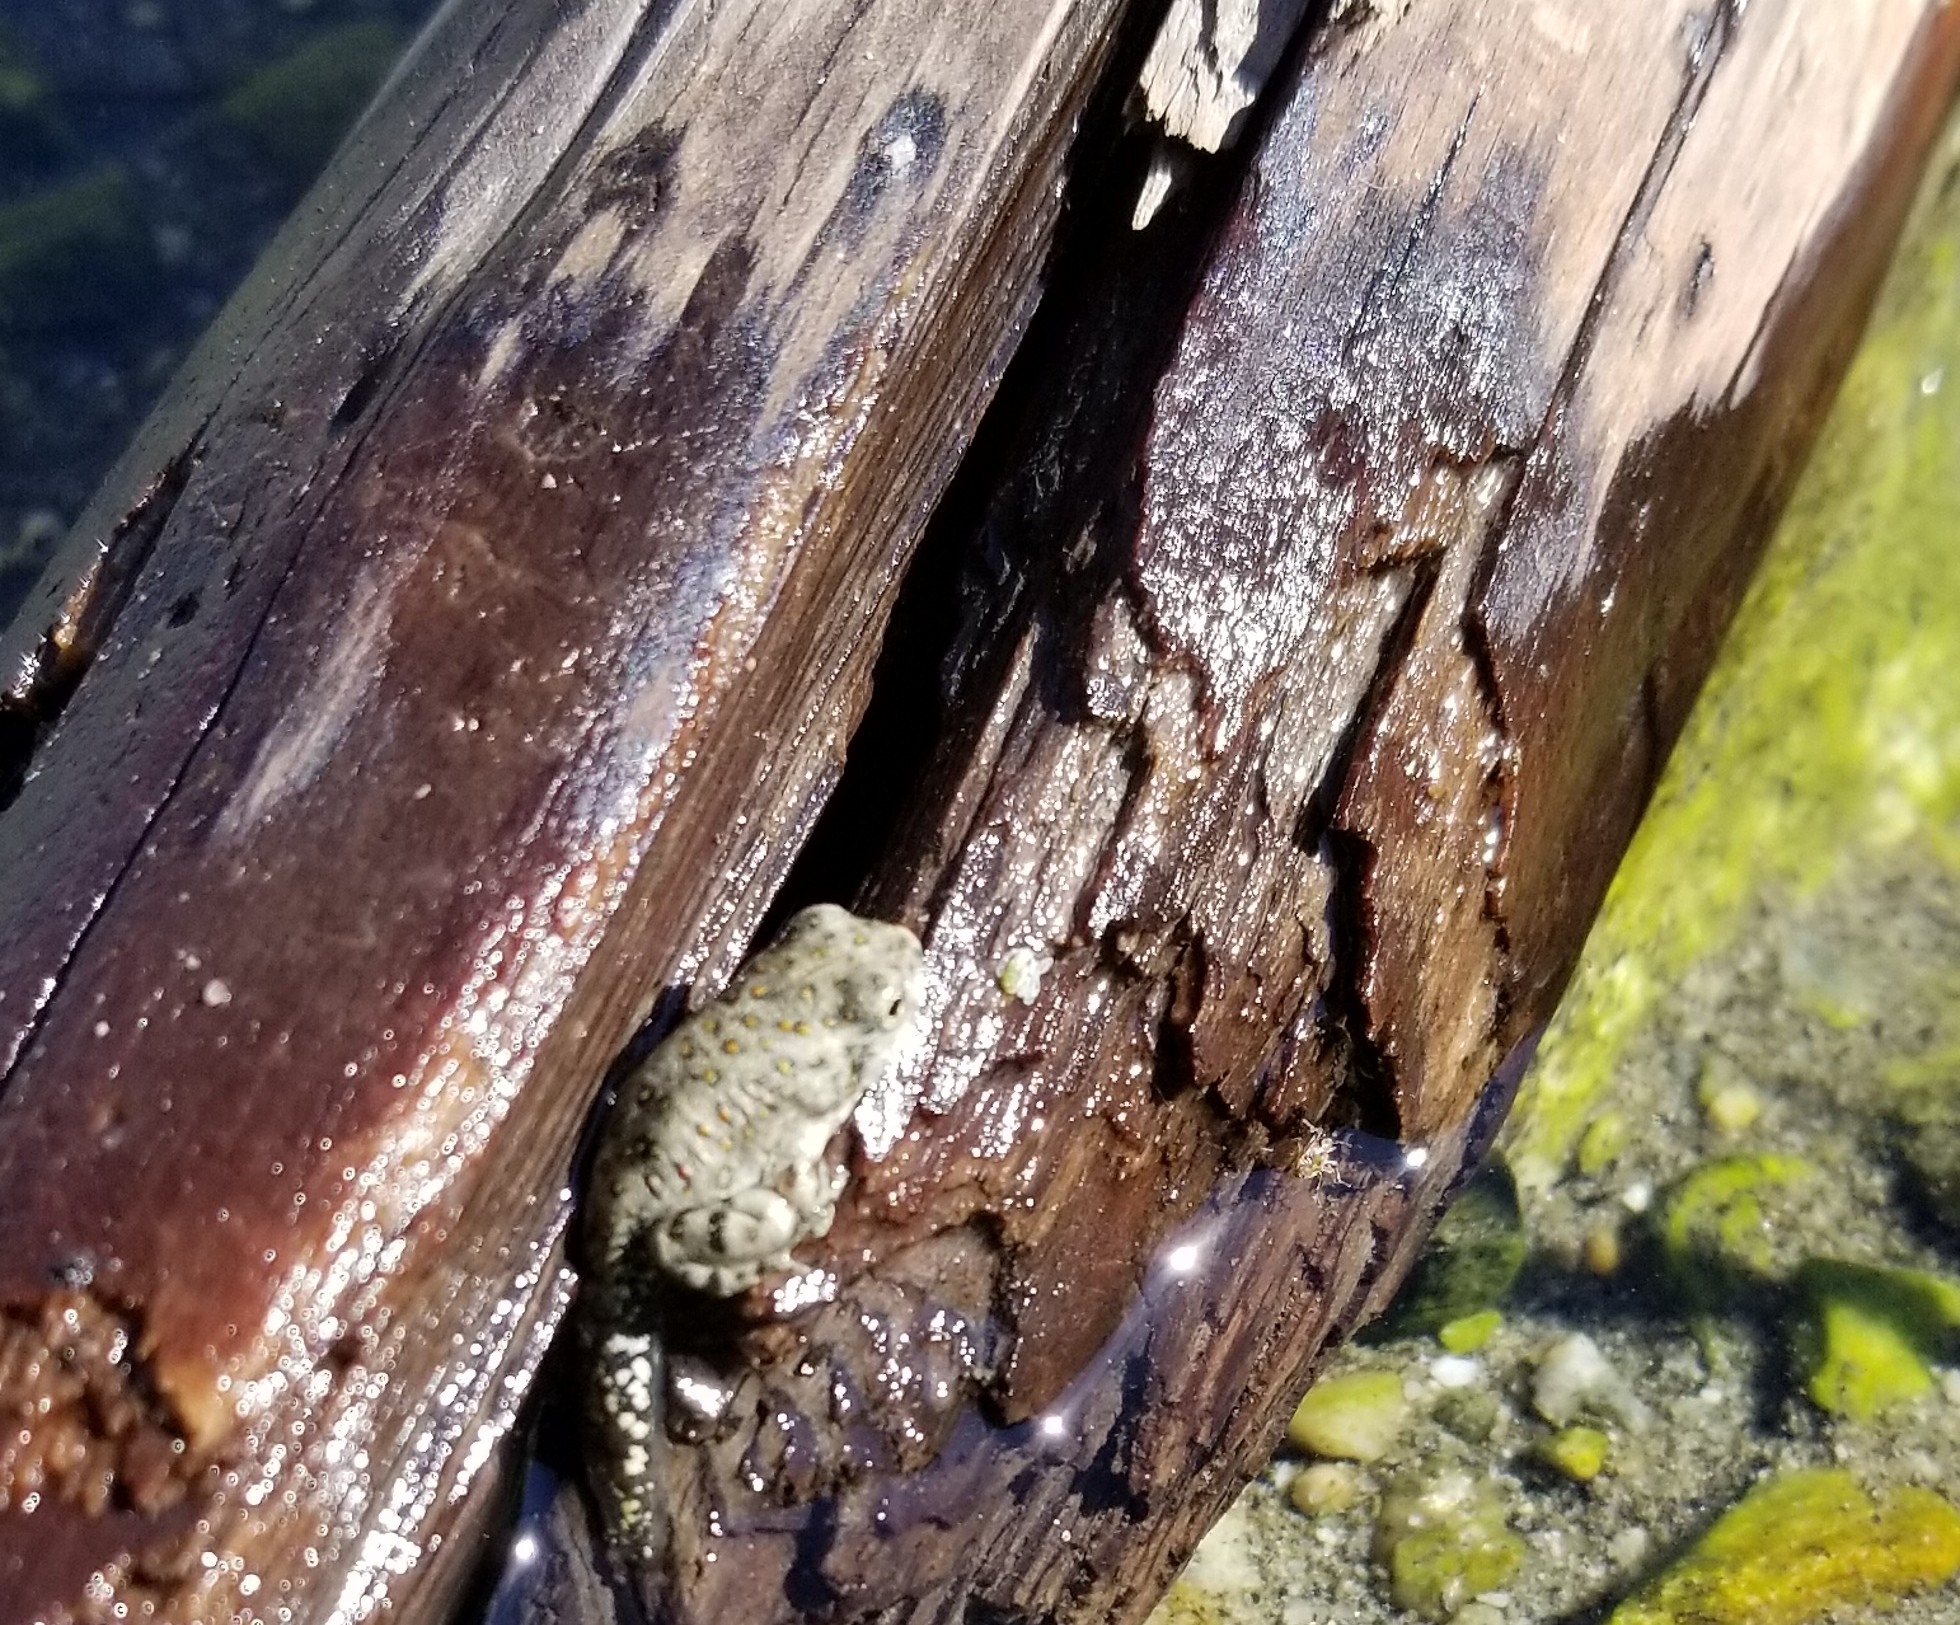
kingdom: Animalia
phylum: Chordata
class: Amphibia
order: Anura
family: Bufonidae
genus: Anaxyrus
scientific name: Anaxyrus punctatus
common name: Red-spotted toad
